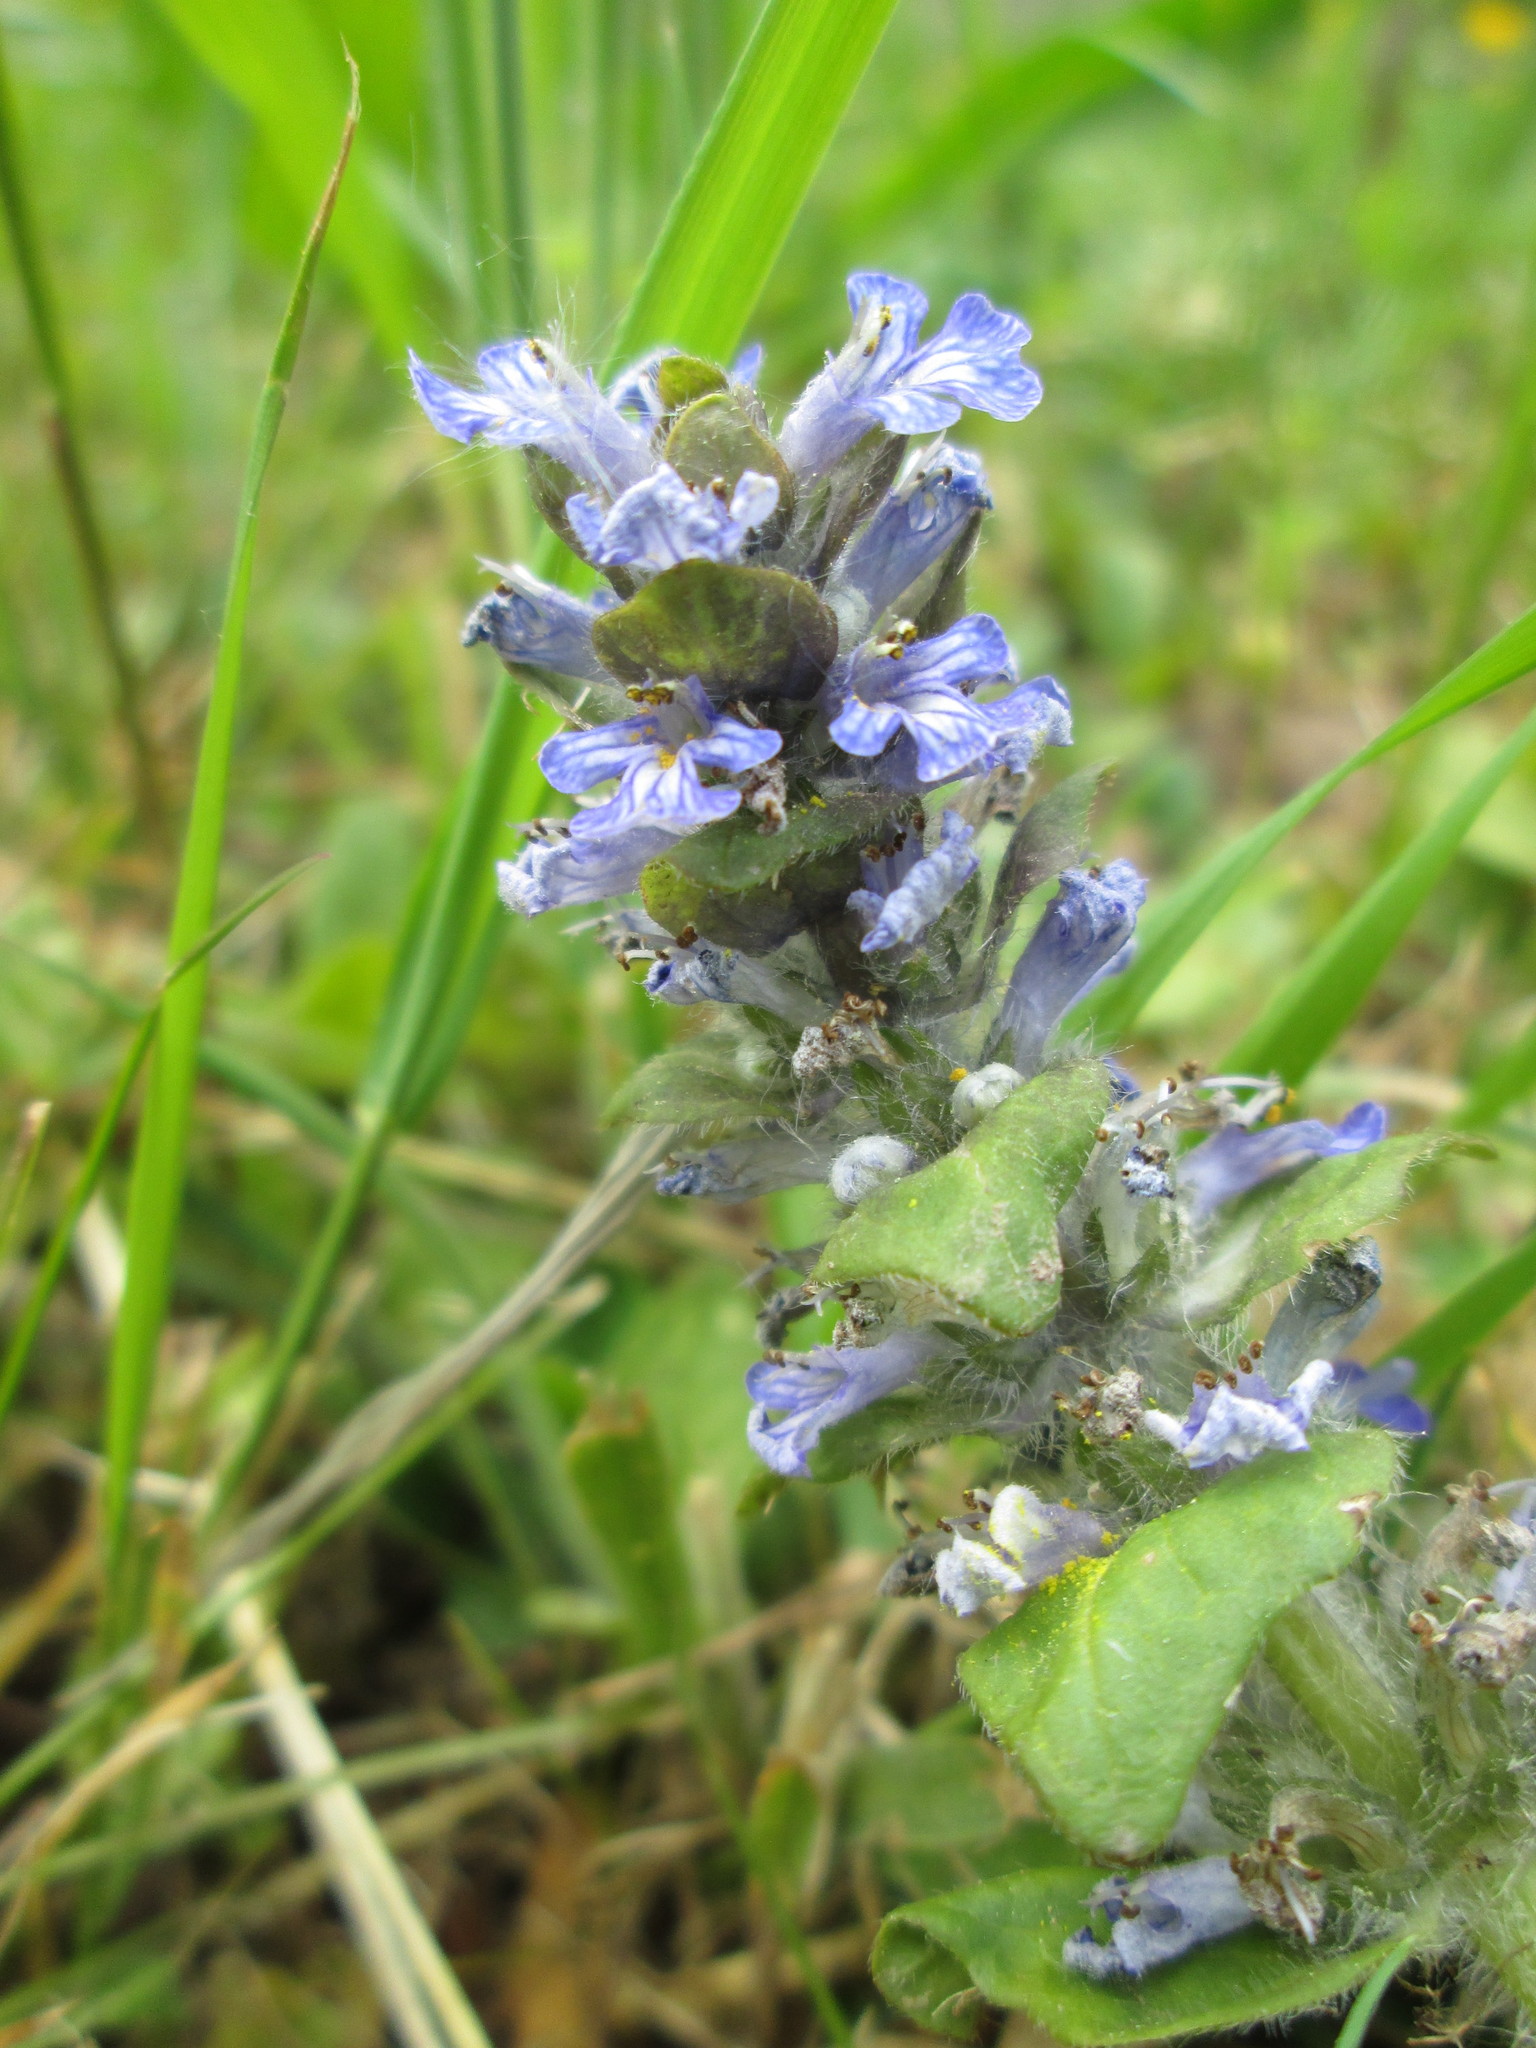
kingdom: Plantae
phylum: Tracheophyta
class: Magnoliopsida
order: Lamiales
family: Lamiaceae
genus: Ajuga
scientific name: Ajuga reptans
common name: Bugle
